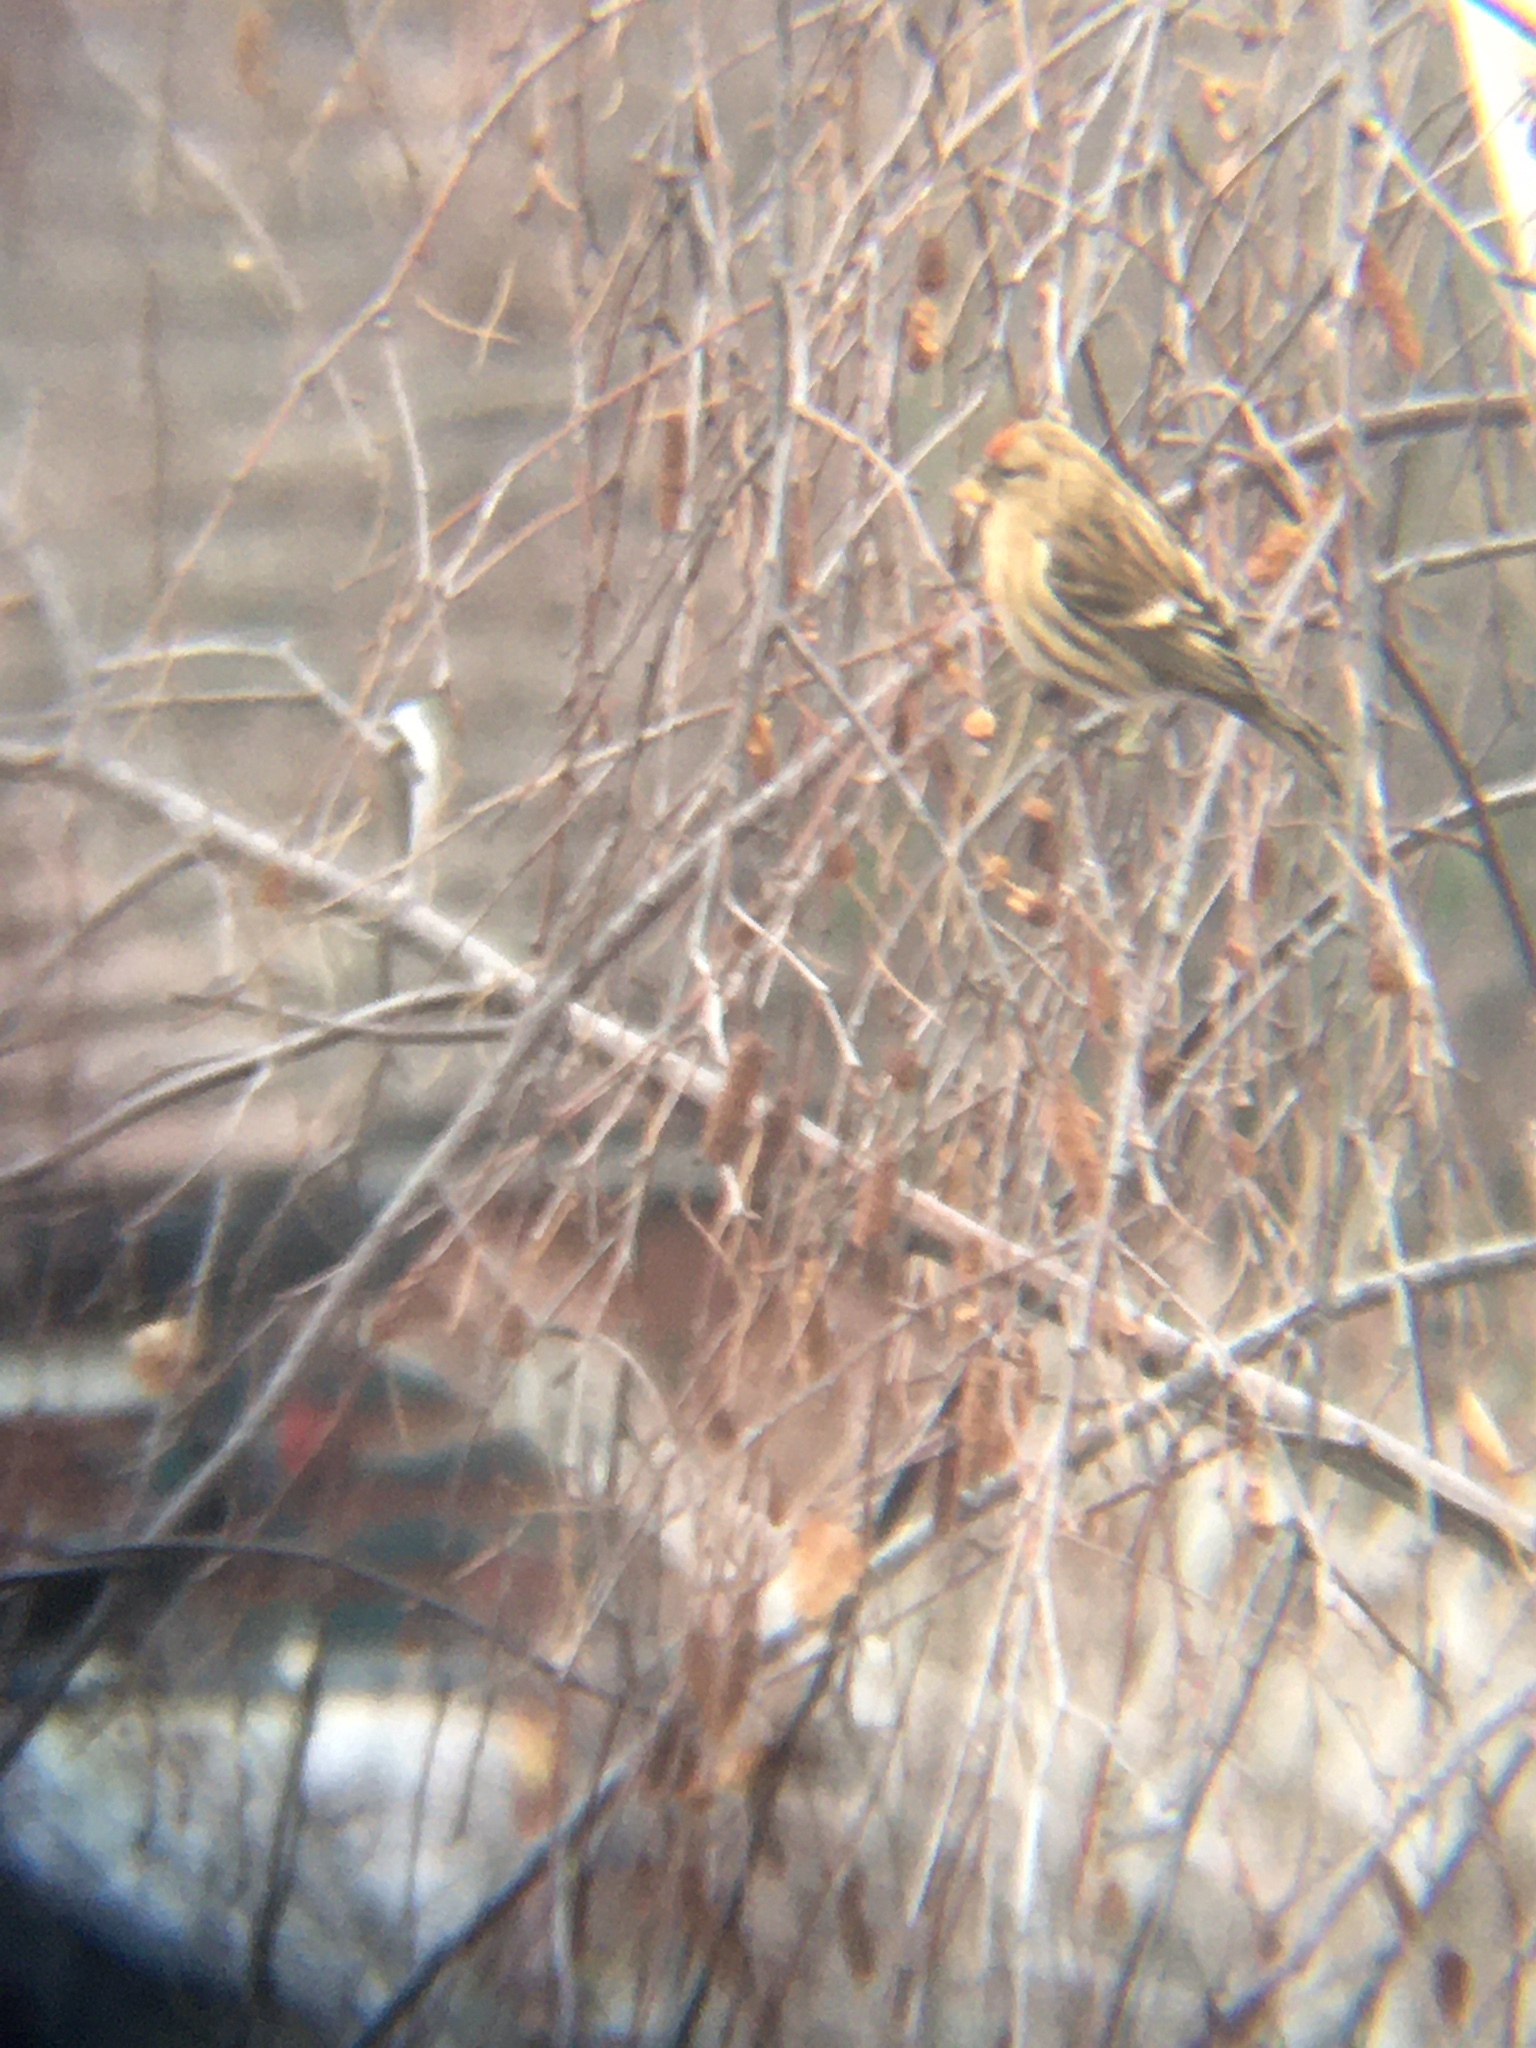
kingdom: Animalia
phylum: Chordata
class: Aves
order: Passeriformes
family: Fringillidae
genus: Acanthis
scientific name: Acanthis flammea
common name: Common redpoll
